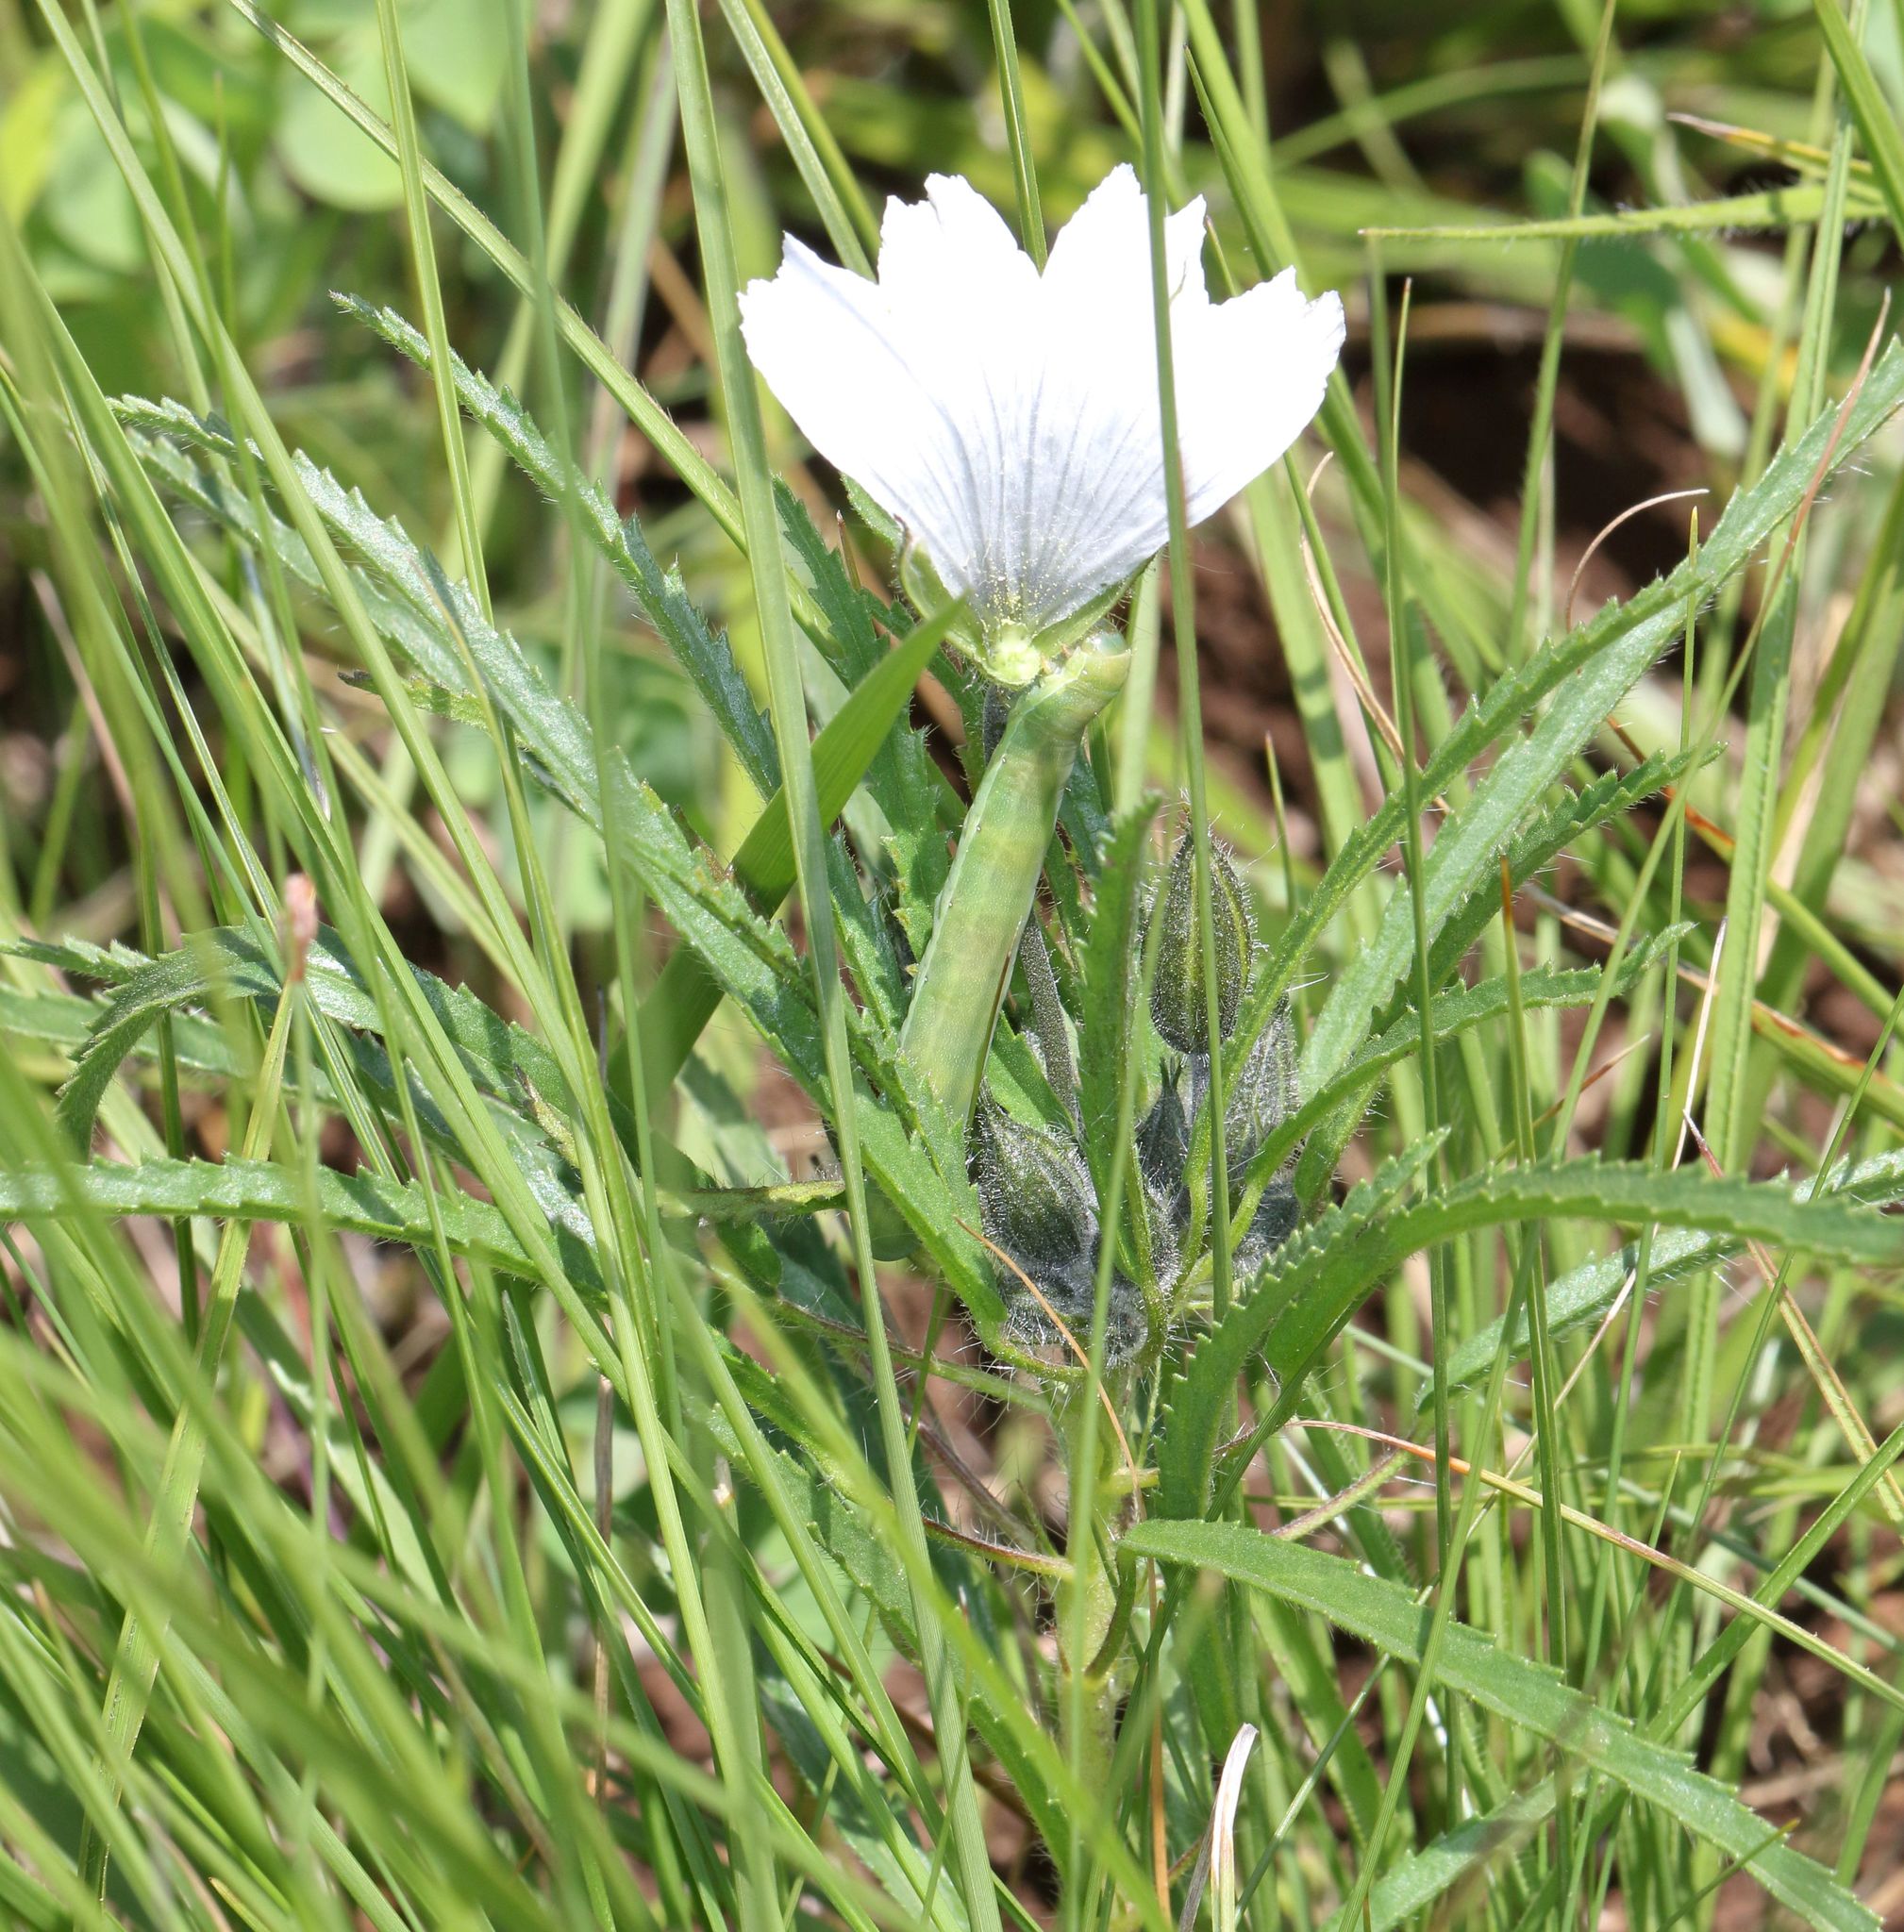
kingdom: Plantae
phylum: Tracheophyta
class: Magnoliopsida
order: Geraniales
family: Geraniaceae
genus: Monsonia
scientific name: Monsonia attenuata
